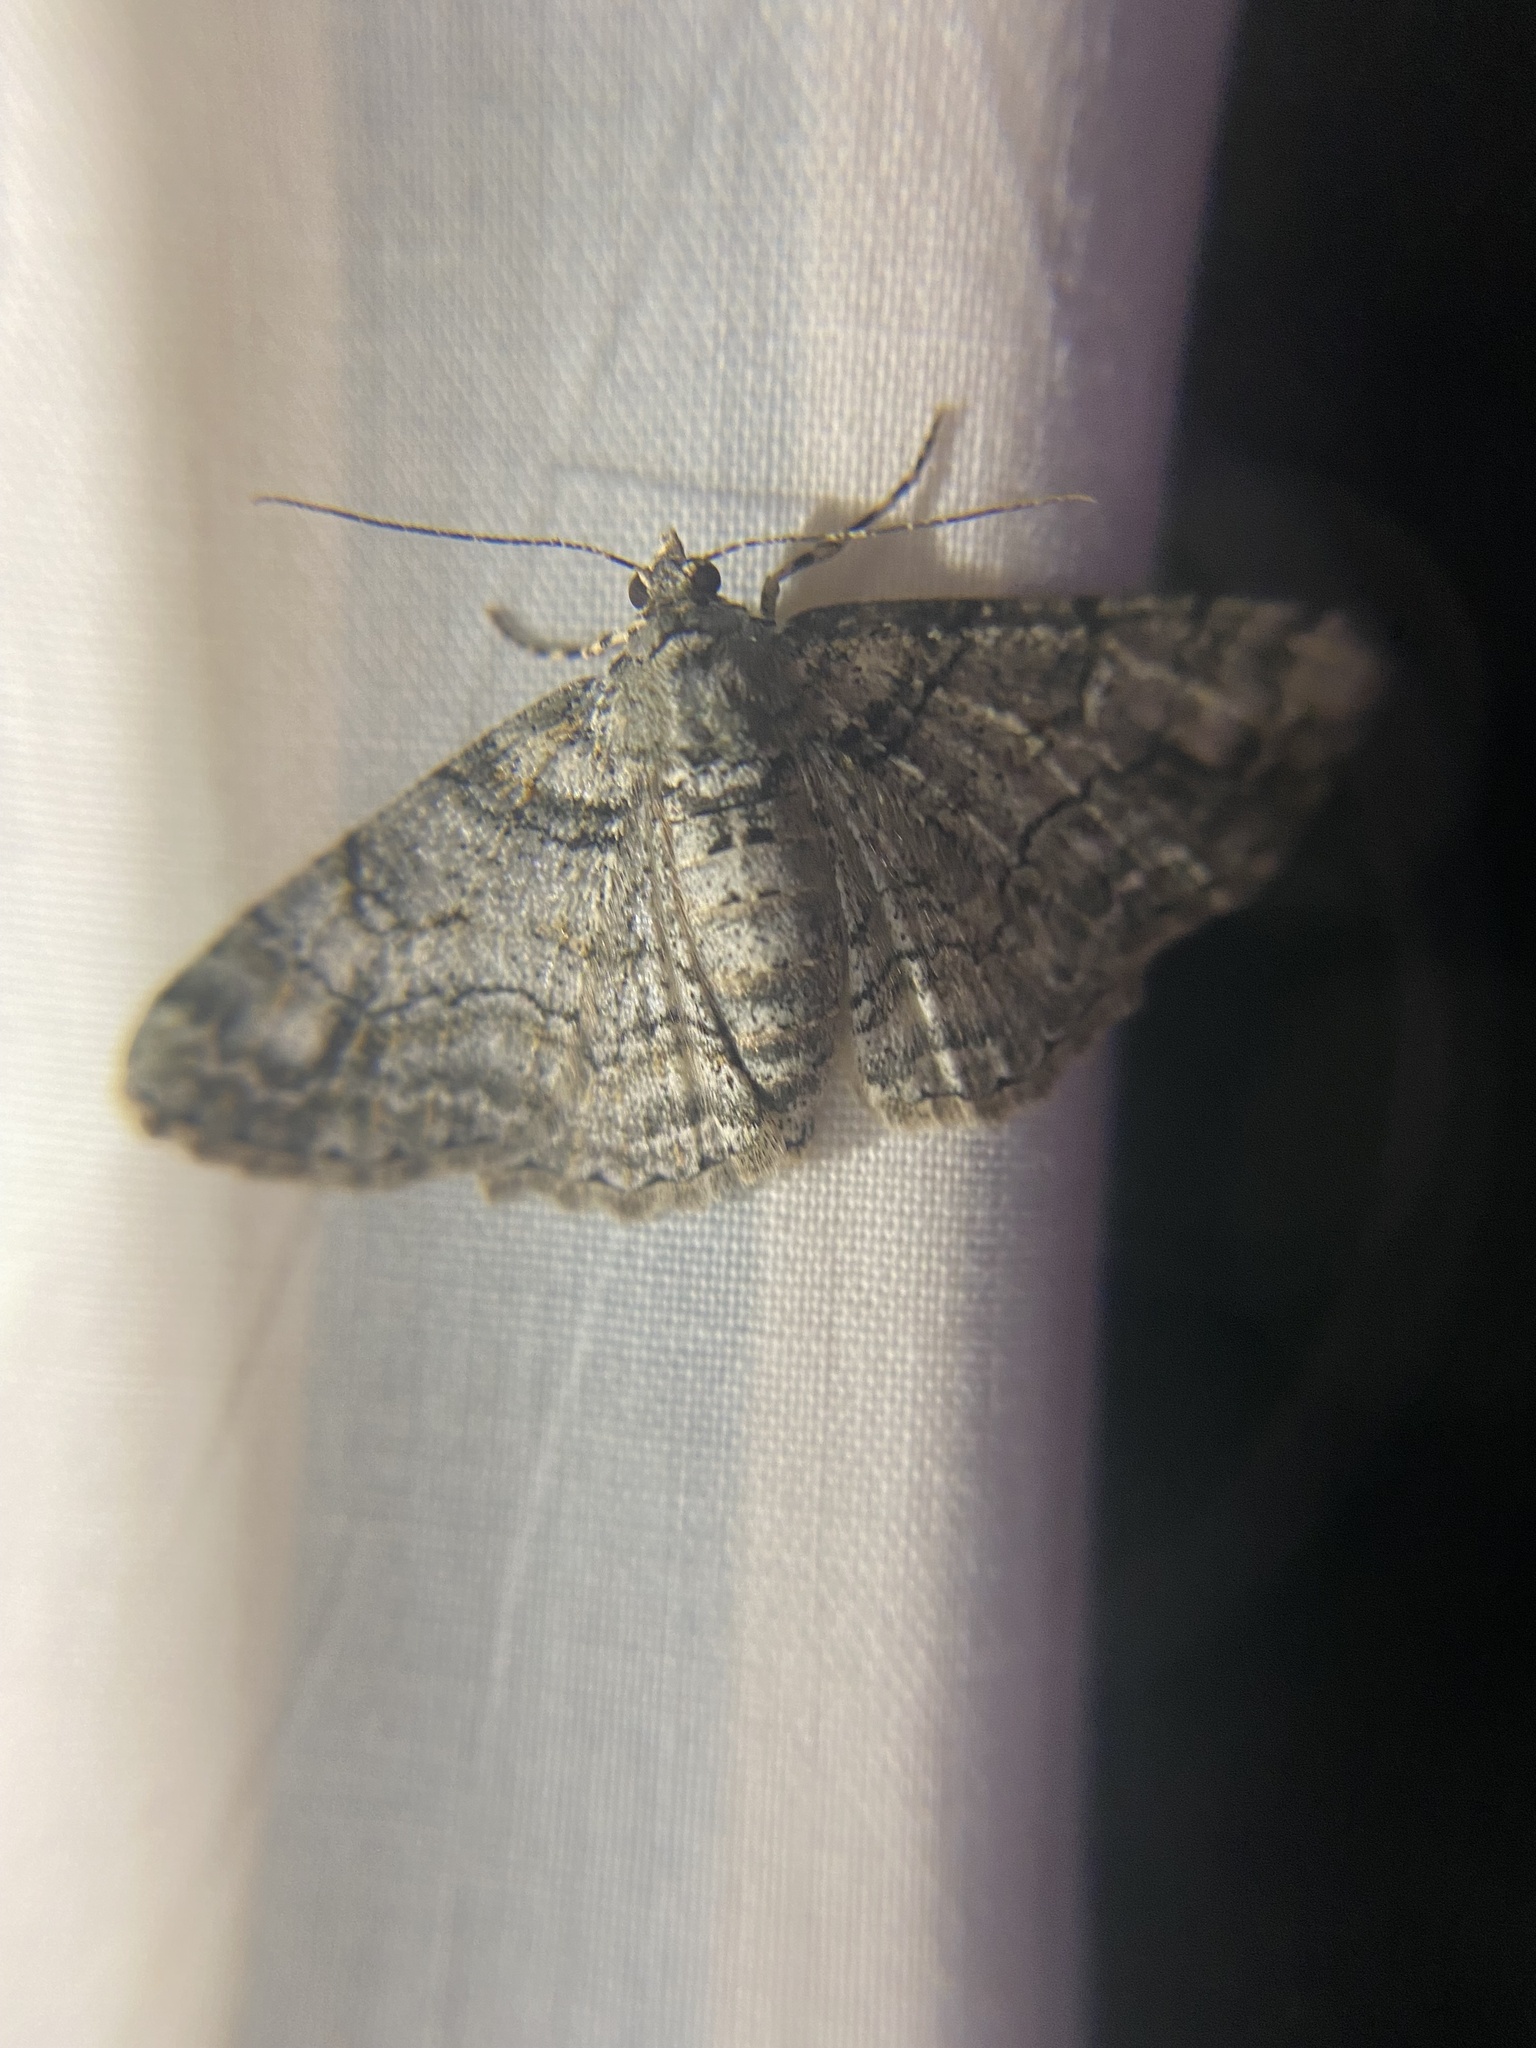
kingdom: Animalia
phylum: Arthropoda
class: Insecta
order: Lepidoptera
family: Geometridae
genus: Cleora
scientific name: Cleora sublunaria
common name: Double-lined gray
